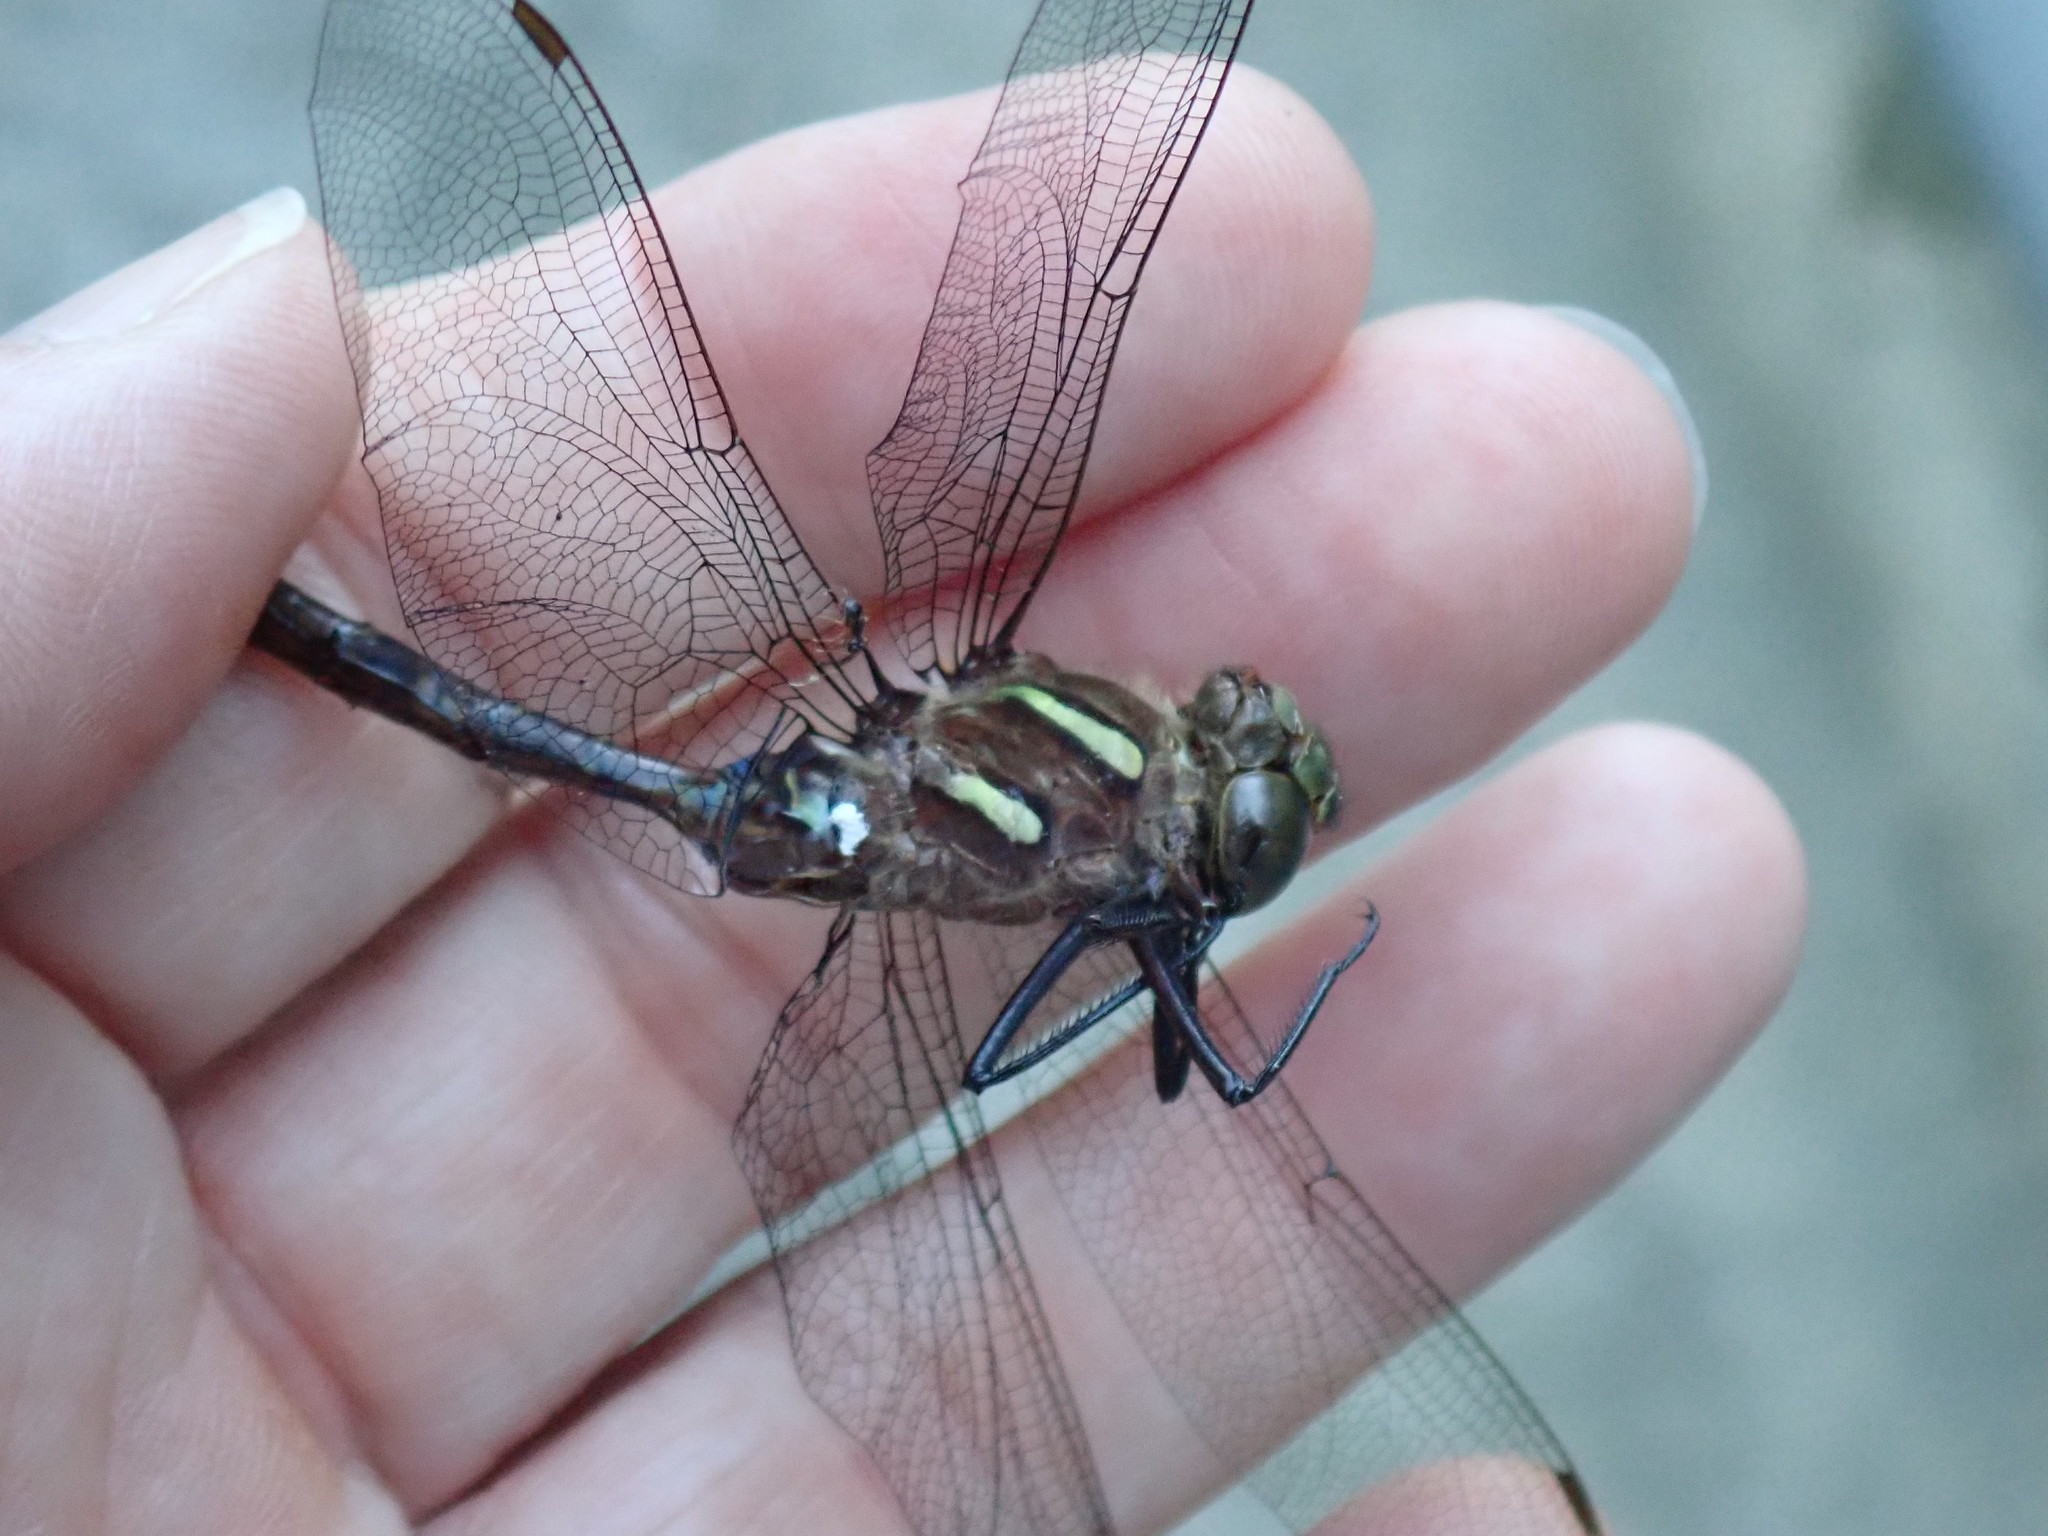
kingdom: Animalia
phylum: Arthropoda
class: Insecta
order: Odonata
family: Aeshnidae
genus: Aeshna
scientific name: Aeshna umbrosa
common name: Shadow darner
